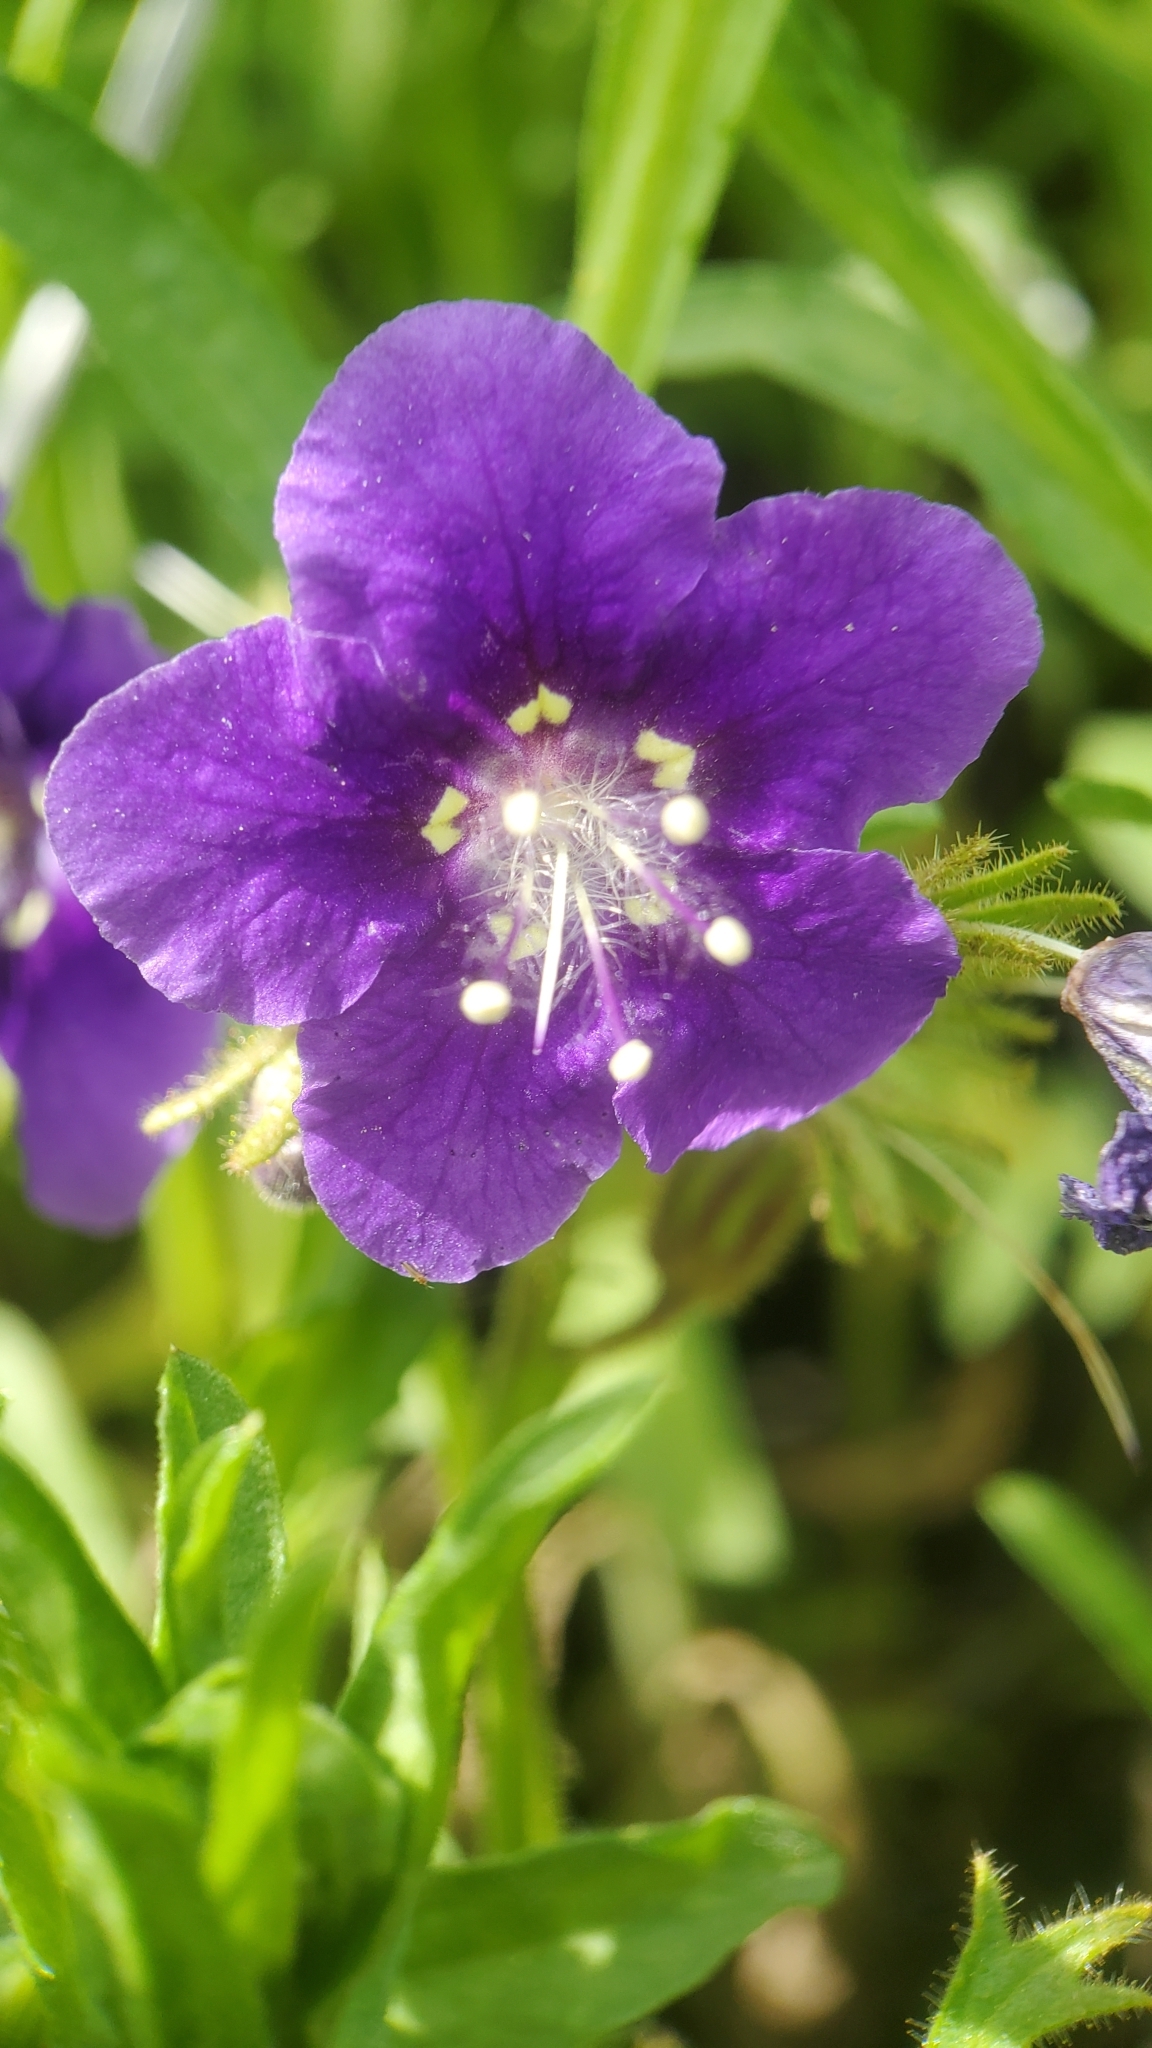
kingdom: Plantae
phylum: Tracheophyta
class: Magnoliopsida
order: Boraginales
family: Hydrophyllaceae
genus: Phacelia
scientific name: Phacelia parryi
